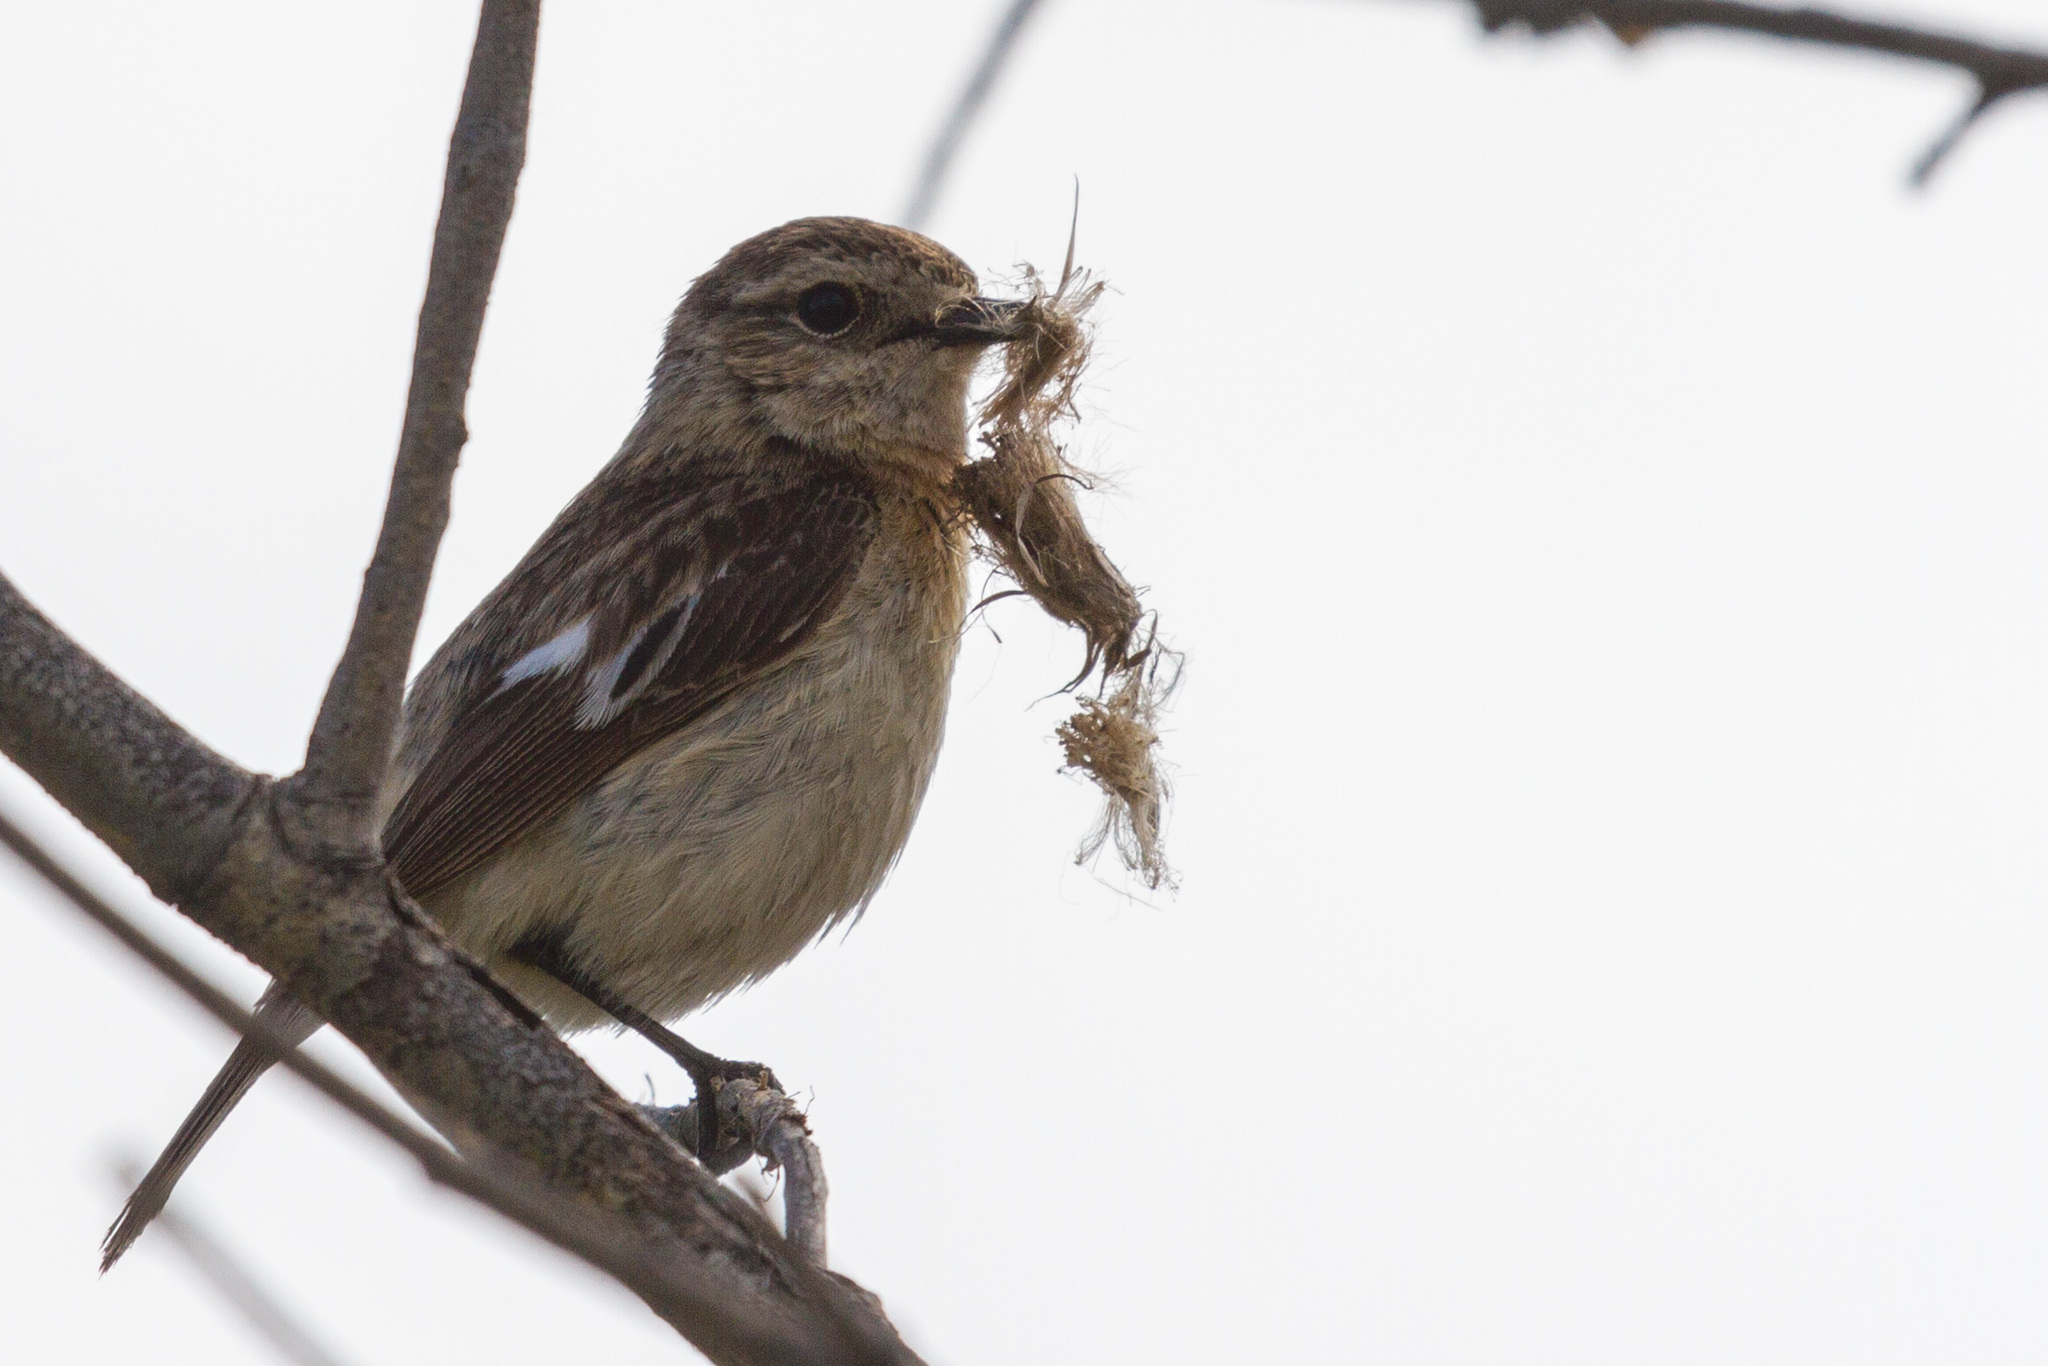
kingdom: Animalia
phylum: Chordata
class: Aves
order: Passeriformes
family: Muscicapidae
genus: Saxicola
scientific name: Saxicola maurus
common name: Siberian stonechat
